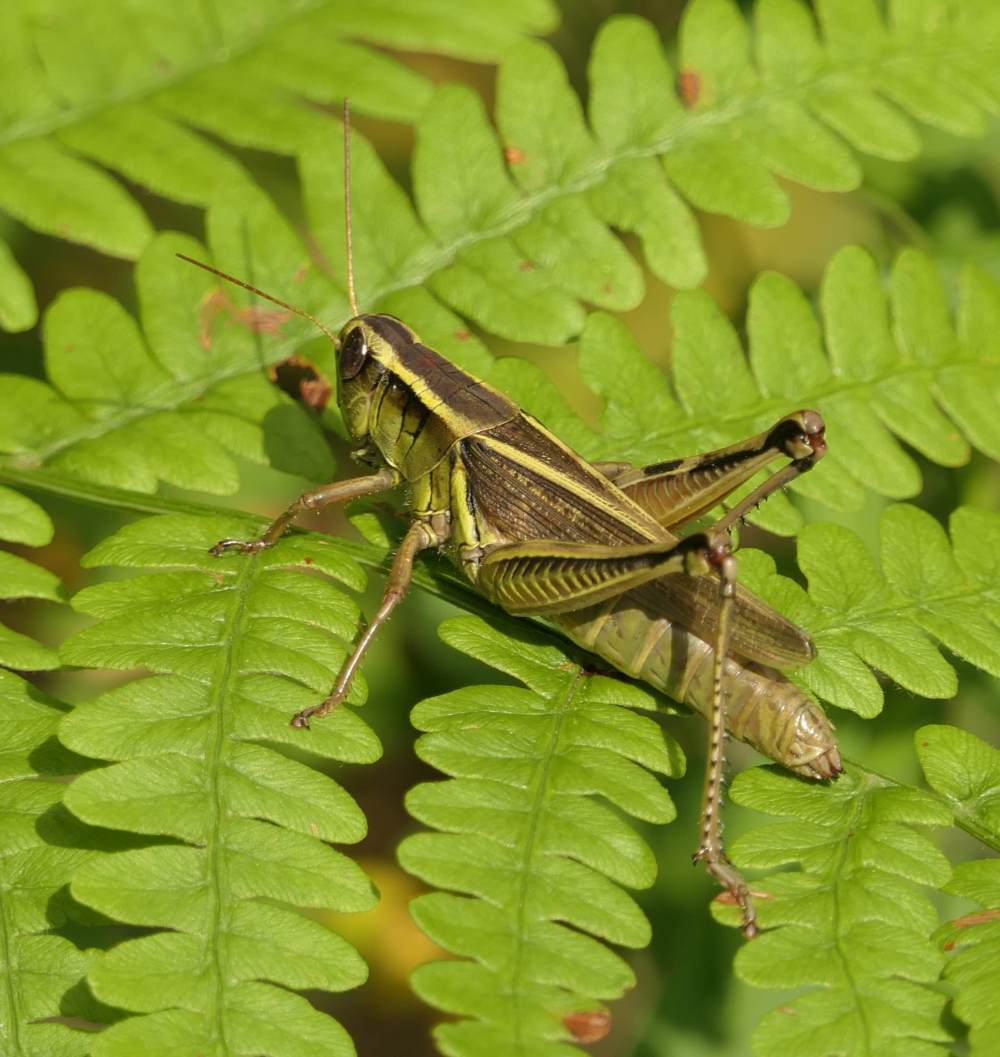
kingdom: Animalia
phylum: Arthropoda
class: Insecta
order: Orthoptera
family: Acrididae
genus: Melanoplus
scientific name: Melanoplus bivittatus
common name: Two-striped grasshopper
